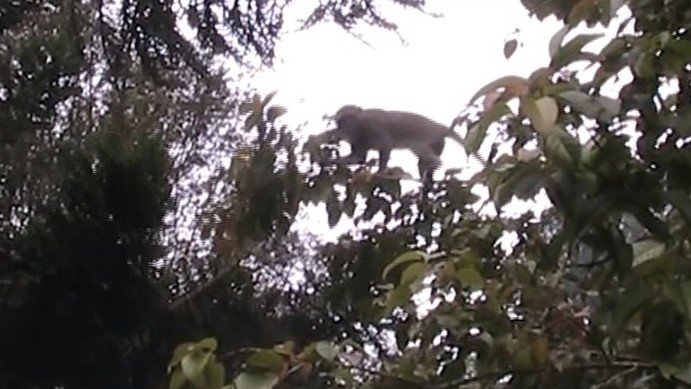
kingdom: Animalia
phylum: Chordata
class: Mammalia
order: Primates
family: Cercopithecidae
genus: Macaca
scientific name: Macaca fascicularis
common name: Crab-eating macaque
